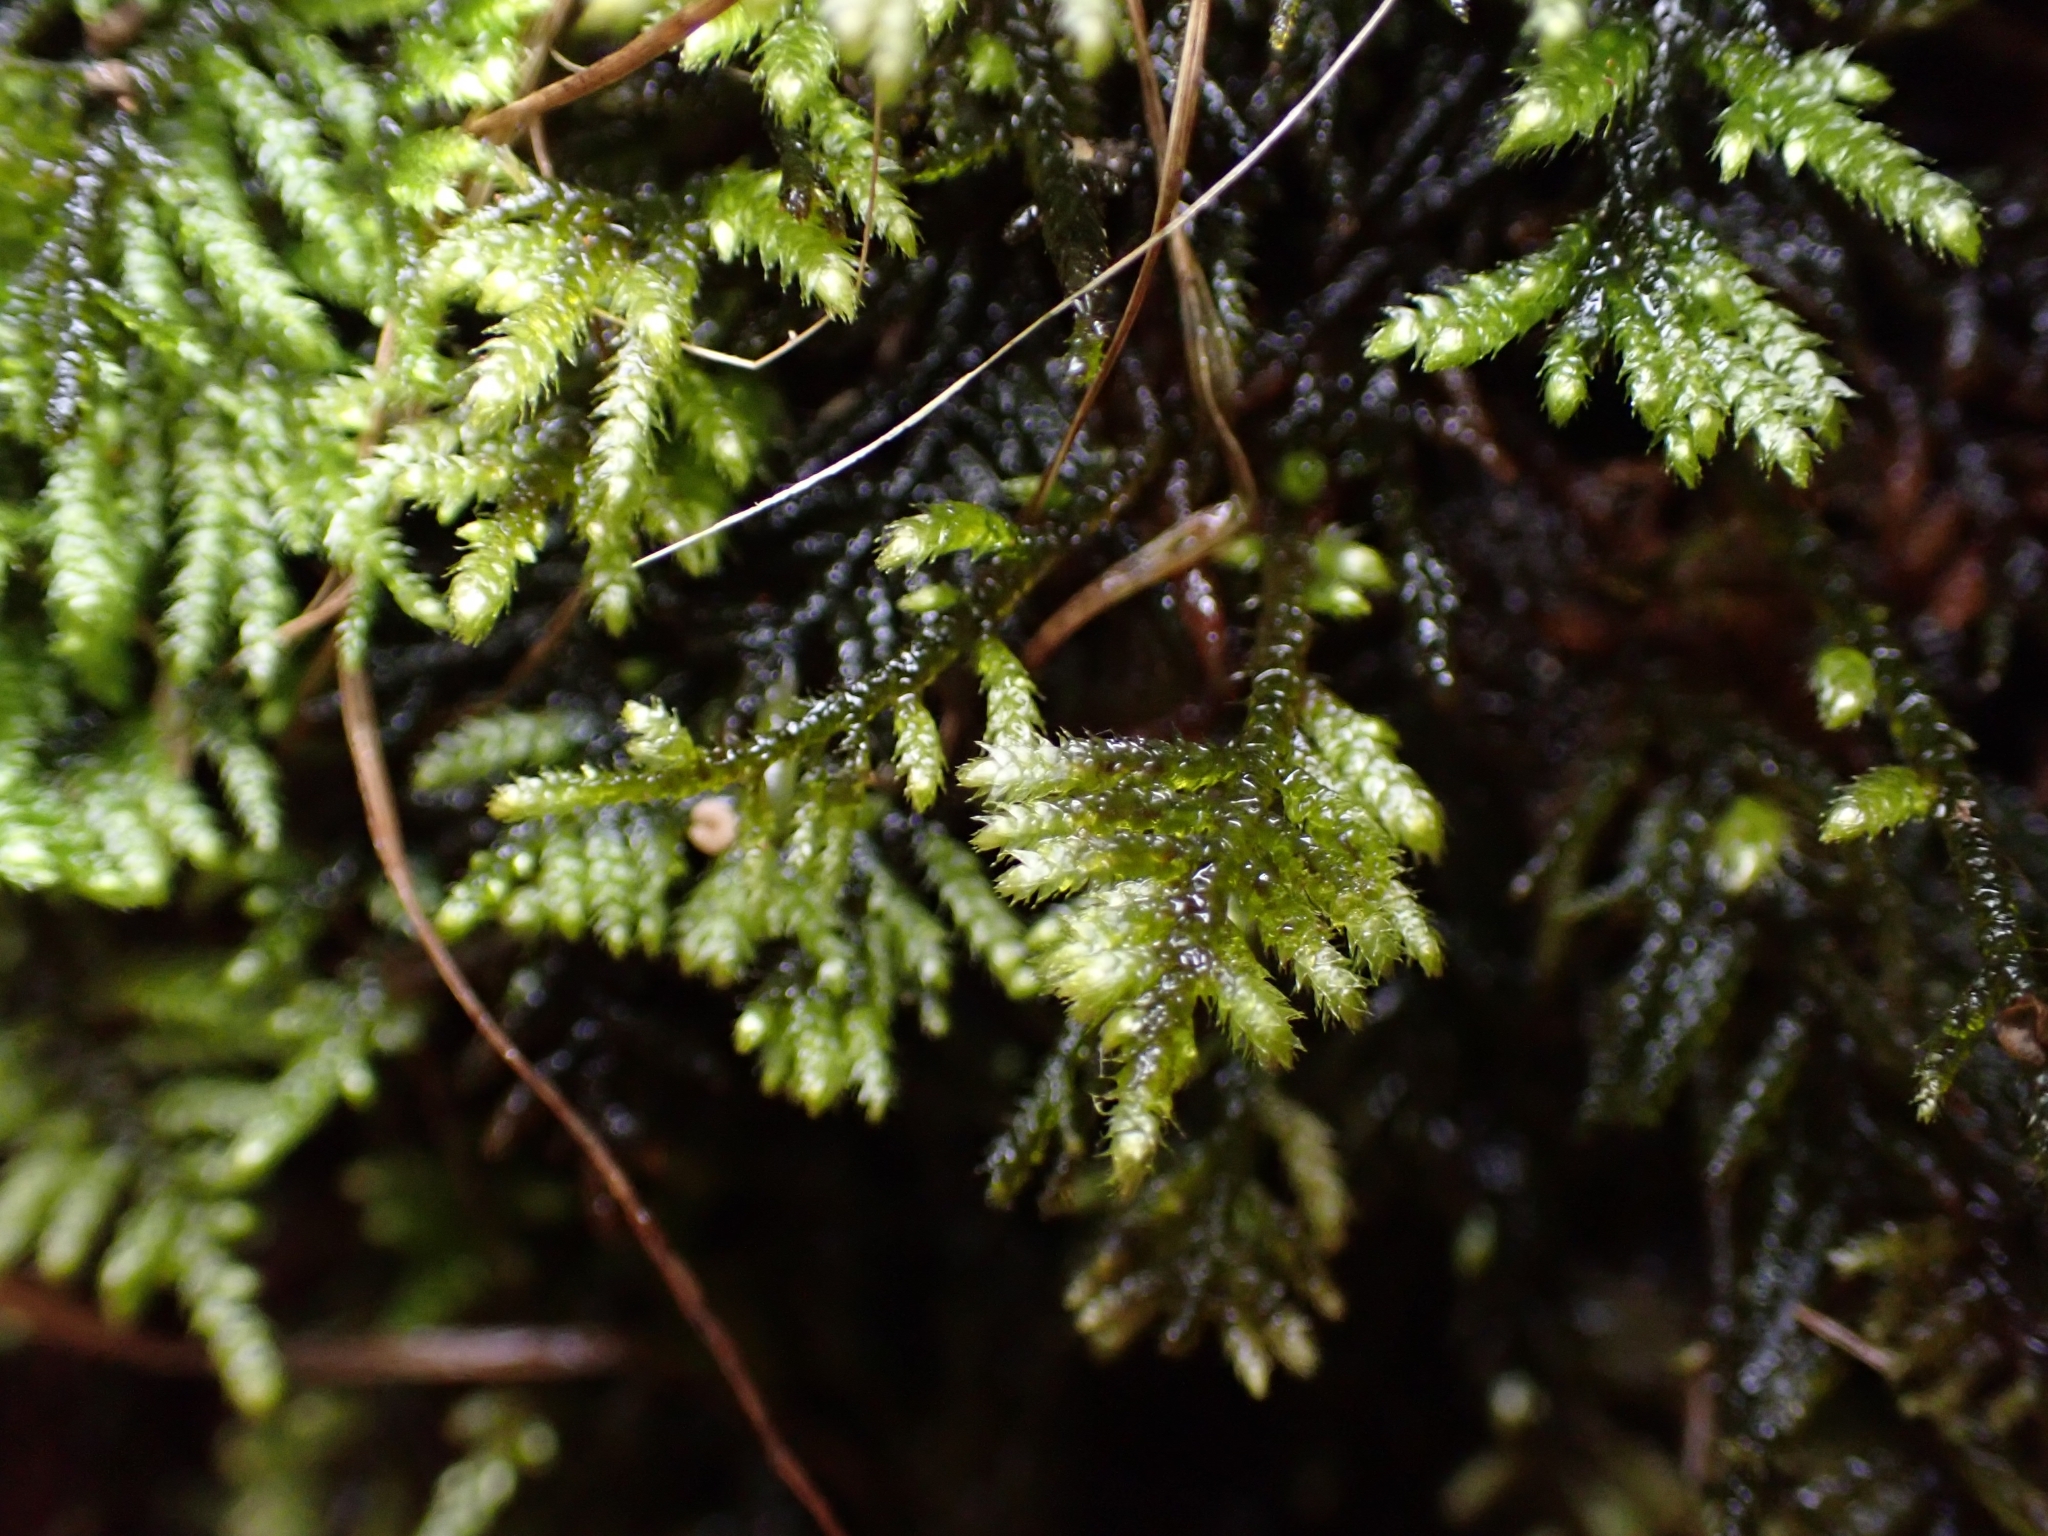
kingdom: Plantae
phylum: Bryophyta
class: Bryopsida
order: Hypnales
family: Myuriaceae
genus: Hyocomium
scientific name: Hyocomium armoricum
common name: Flagellate feather-moss
